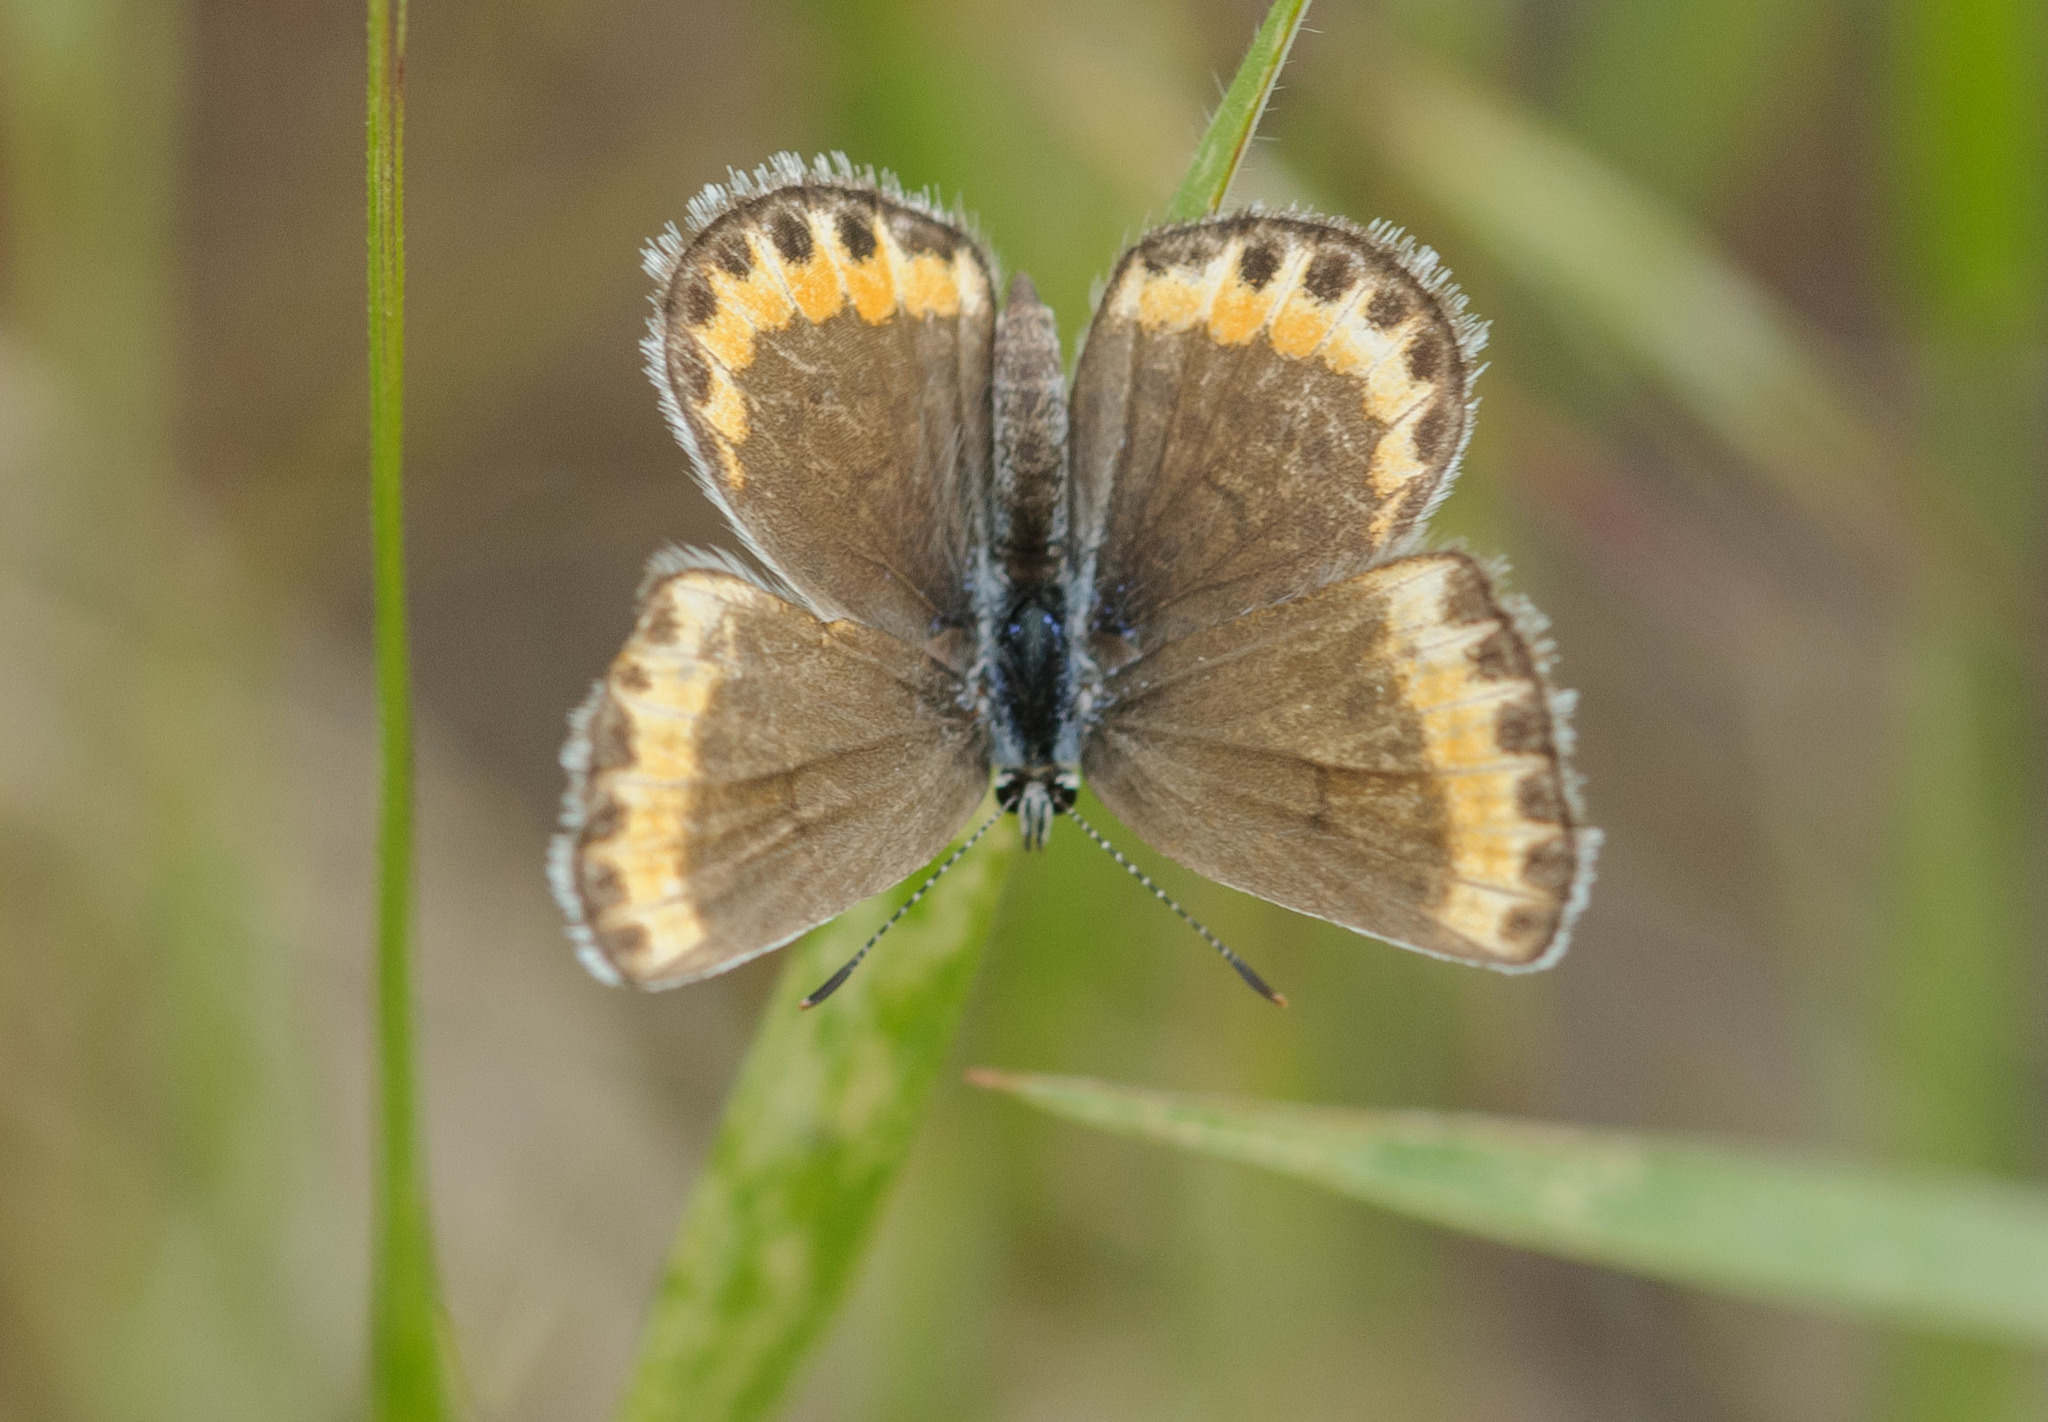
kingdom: Animalia
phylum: Arthropoda
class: Insecta
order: Lepidoptera
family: Lycaenidae
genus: Lycaeides
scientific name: Lycaeides melissa
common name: Melissa blue
